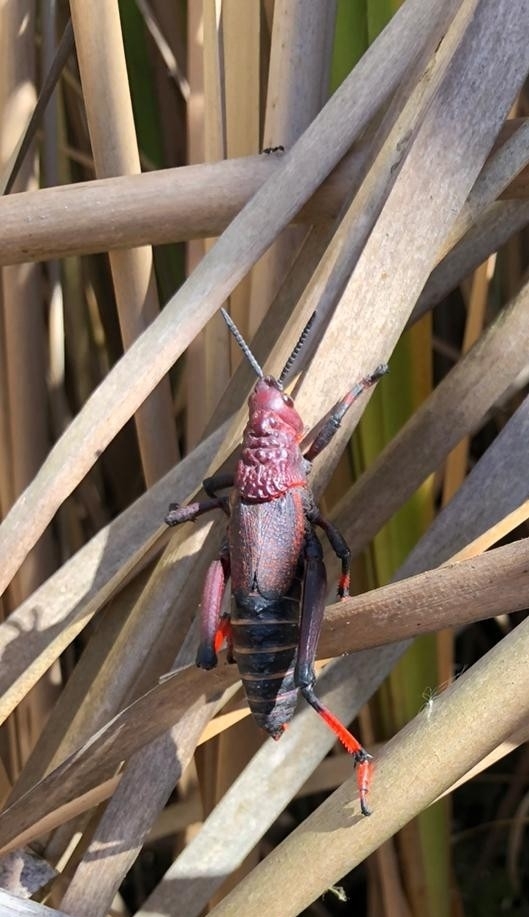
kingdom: Animalia
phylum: Arthropoda
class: Insecta
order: Orthoptera
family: Pyrgomorphidae
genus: Dictyophorus
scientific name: Dictyophorus spumans
